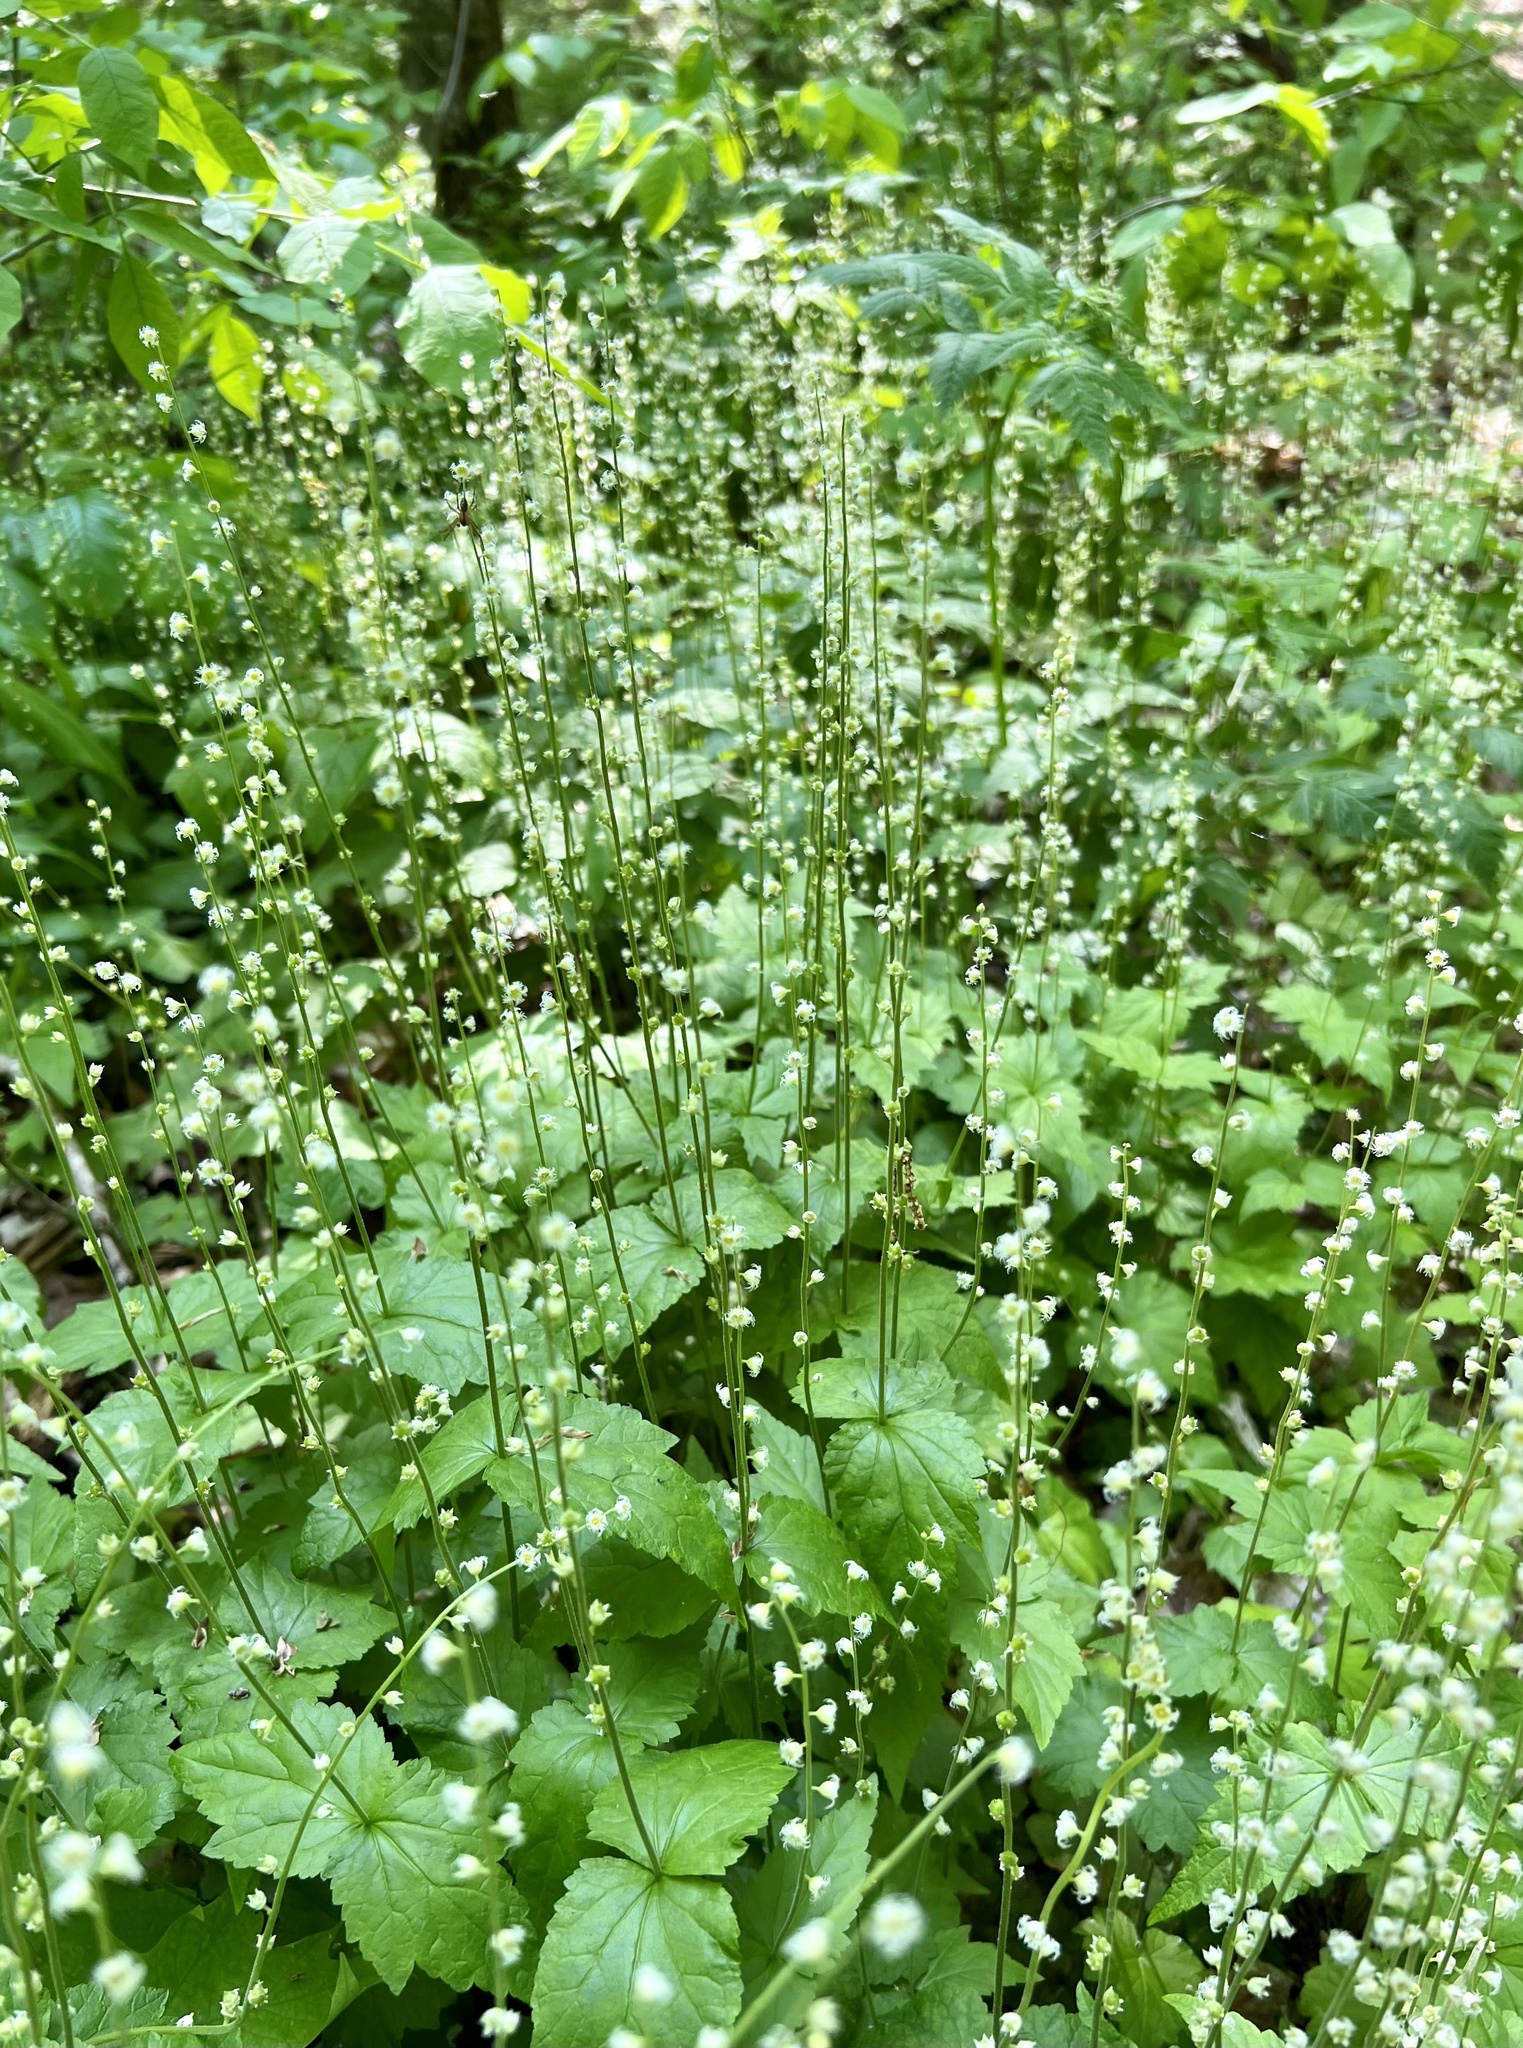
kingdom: Plantae
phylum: Tracheophyta
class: Magnoliopsida
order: Saxifragales
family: Saxifragaceae
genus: Mitella
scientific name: Mitella diphylla
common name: Coolwort
